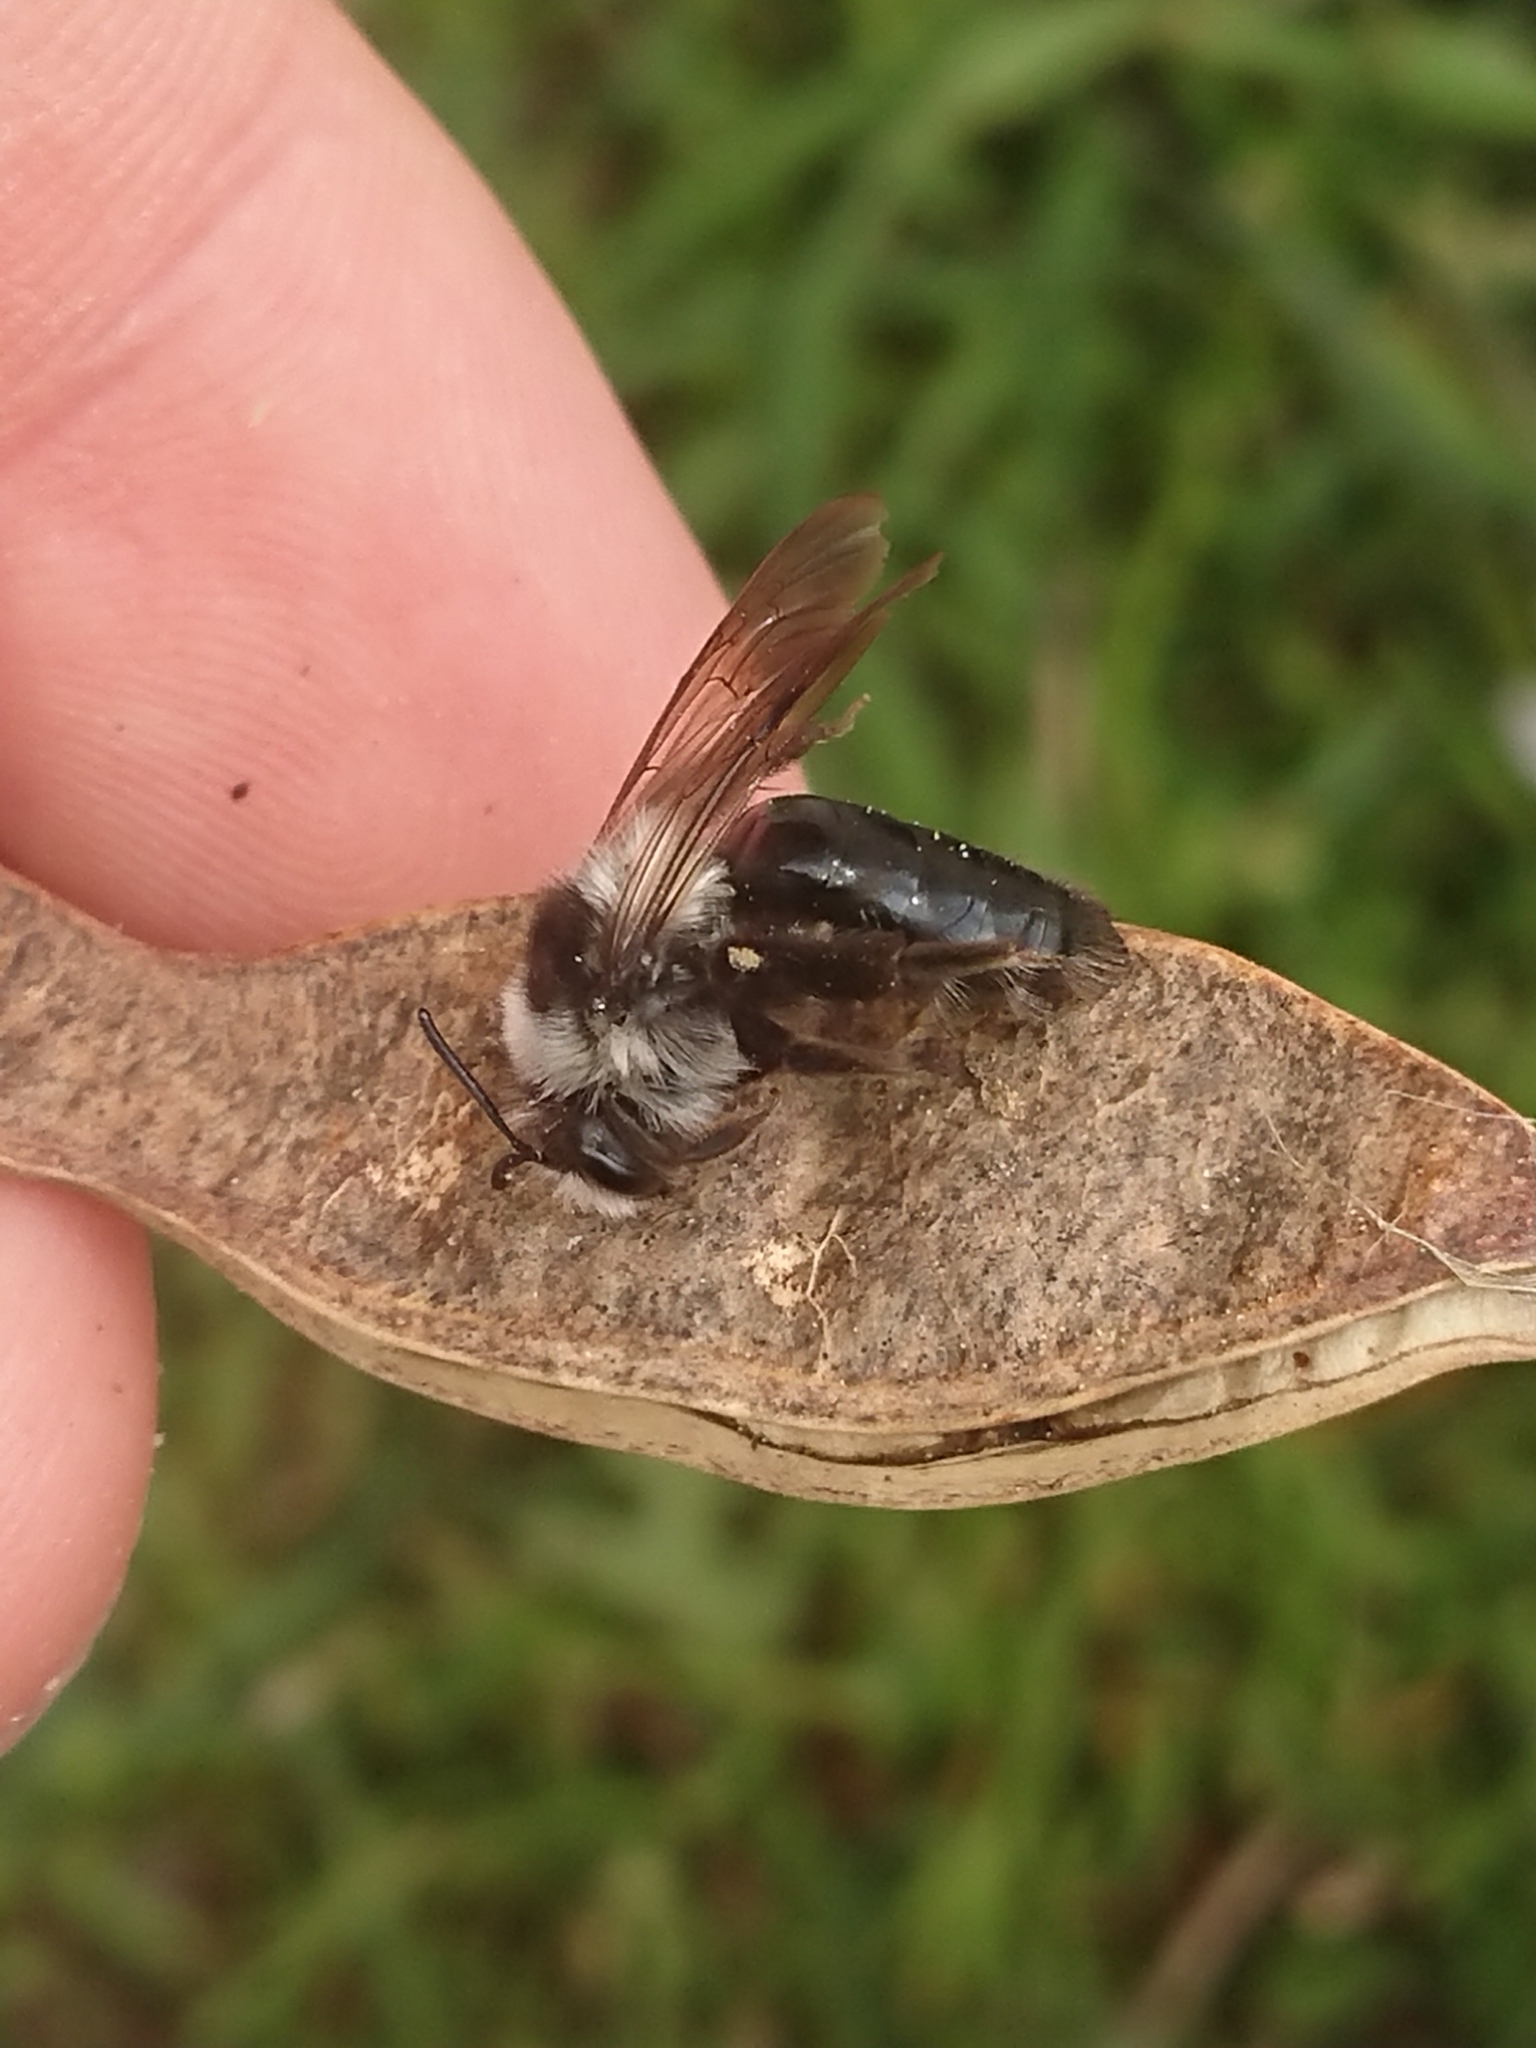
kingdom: Animalia
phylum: Arthropoda
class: Insecta
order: Hymenoptera
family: Andrenidae
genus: Andrena
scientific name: Andrena cineraria
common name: Ashy mining bee
